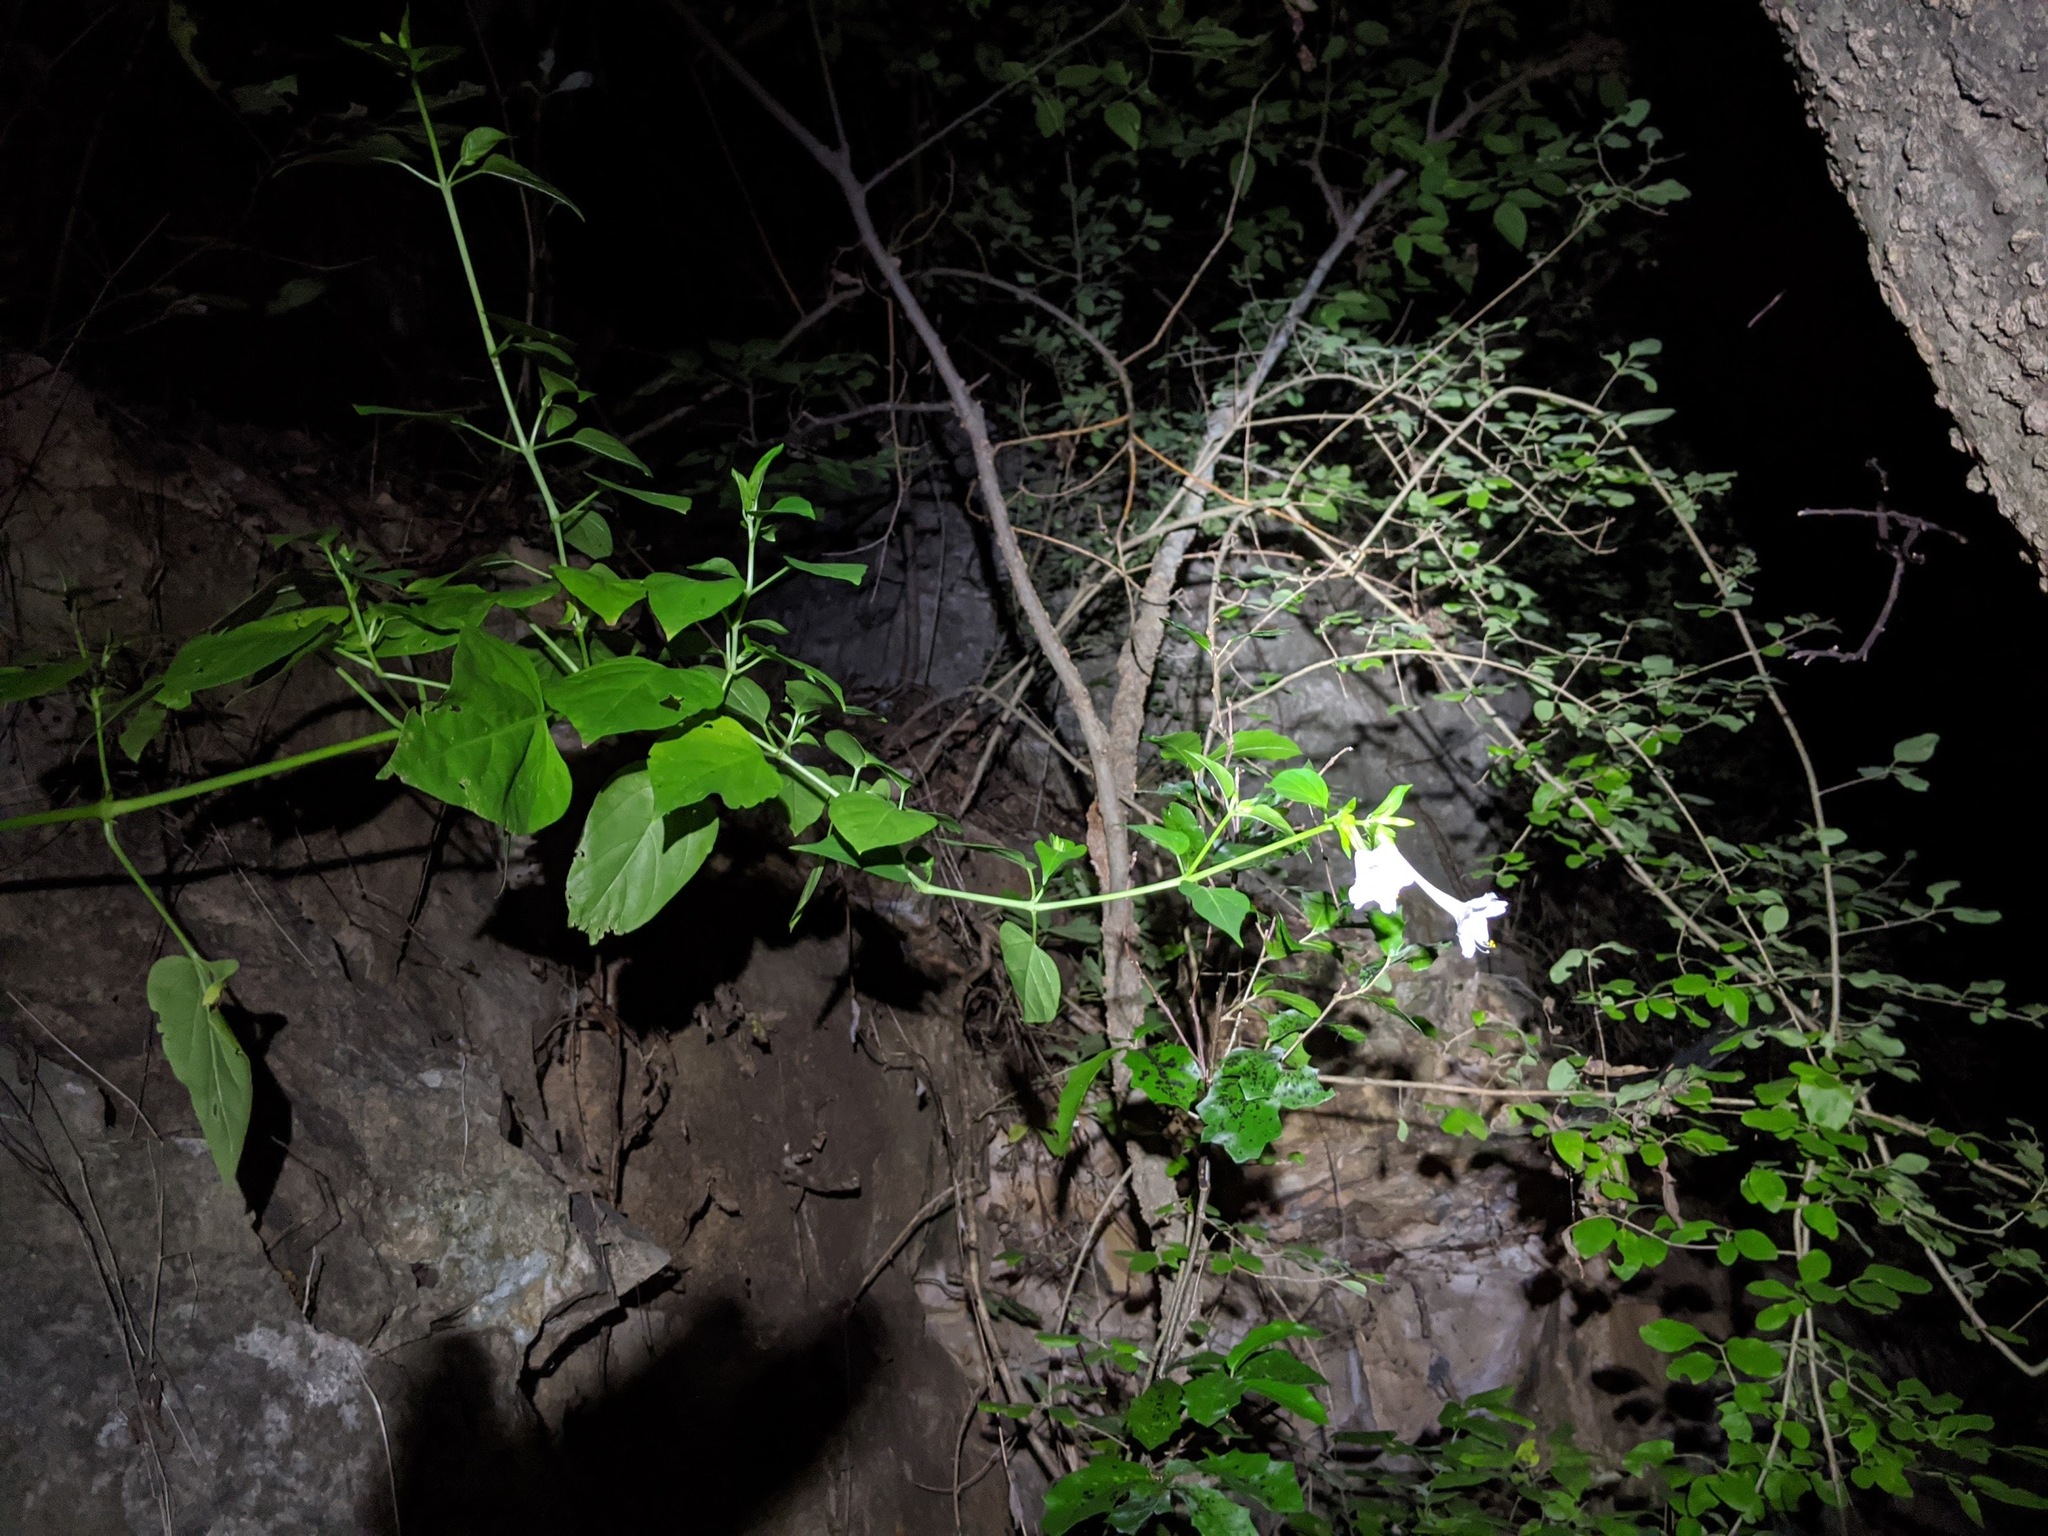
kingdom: Plantae
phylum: Tracheophyta
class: Magnoliopsida
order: Caryophyllales
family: Nyctaginaceae
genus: Mirabilis
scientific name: Mirabilis jalapa
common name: Marvel-of-peru
